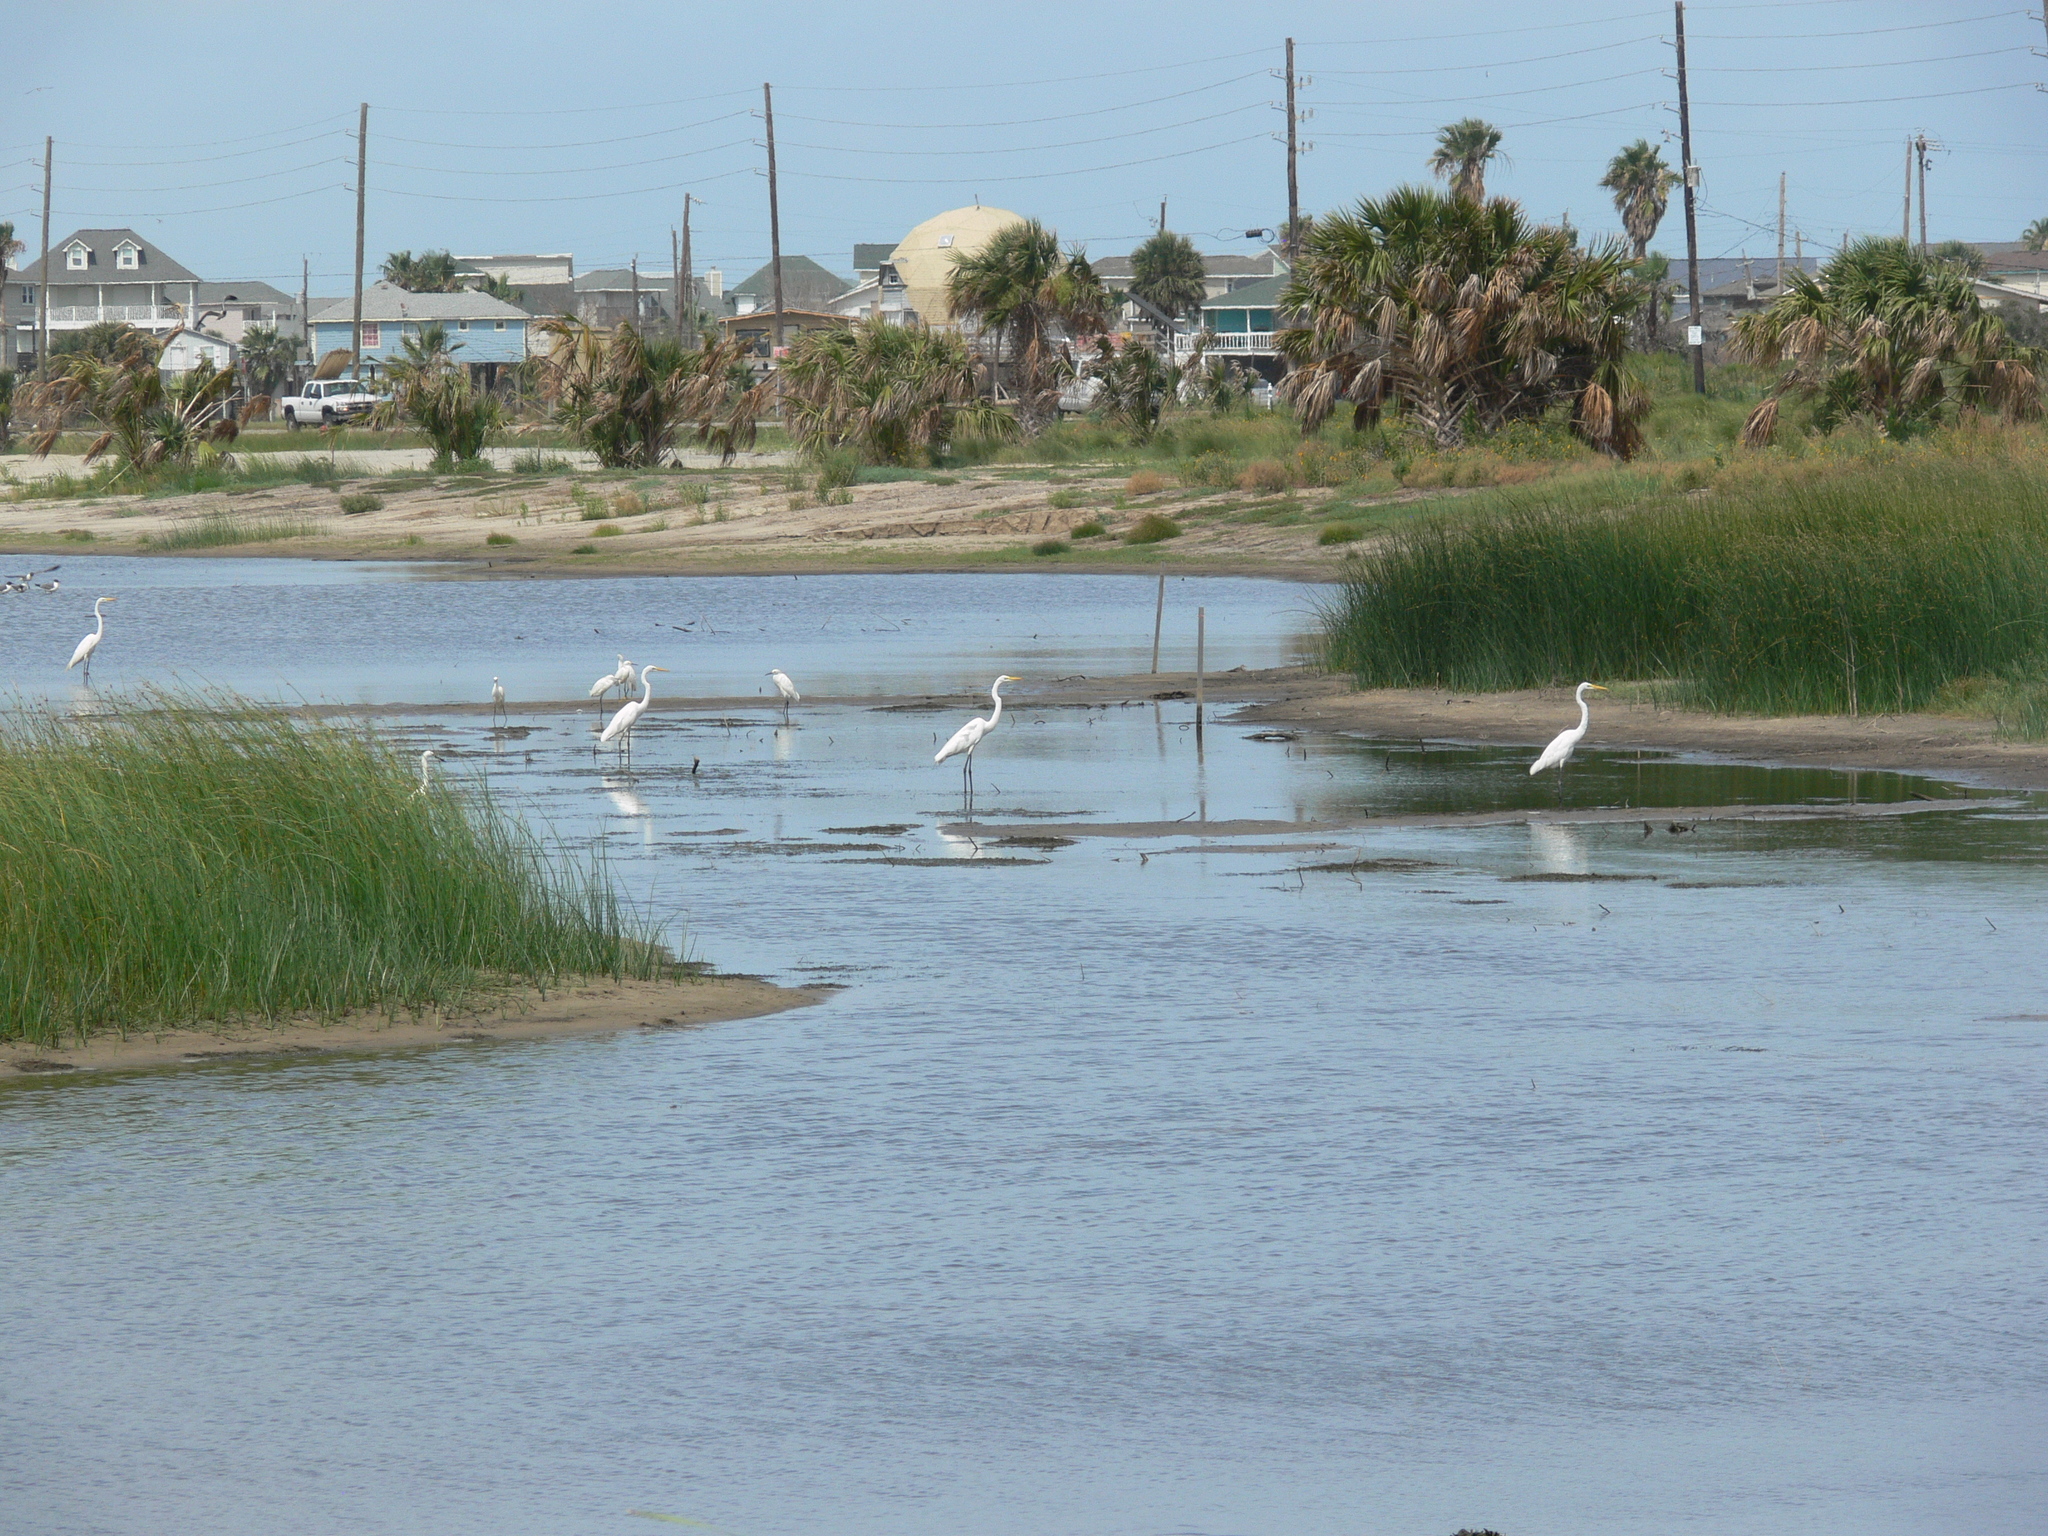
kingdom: Animalia
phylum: Chordata
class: Aves
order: Pelecaniformes
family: Ardeidae
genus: Ardea
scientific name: Ardea alba
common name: Great egret
